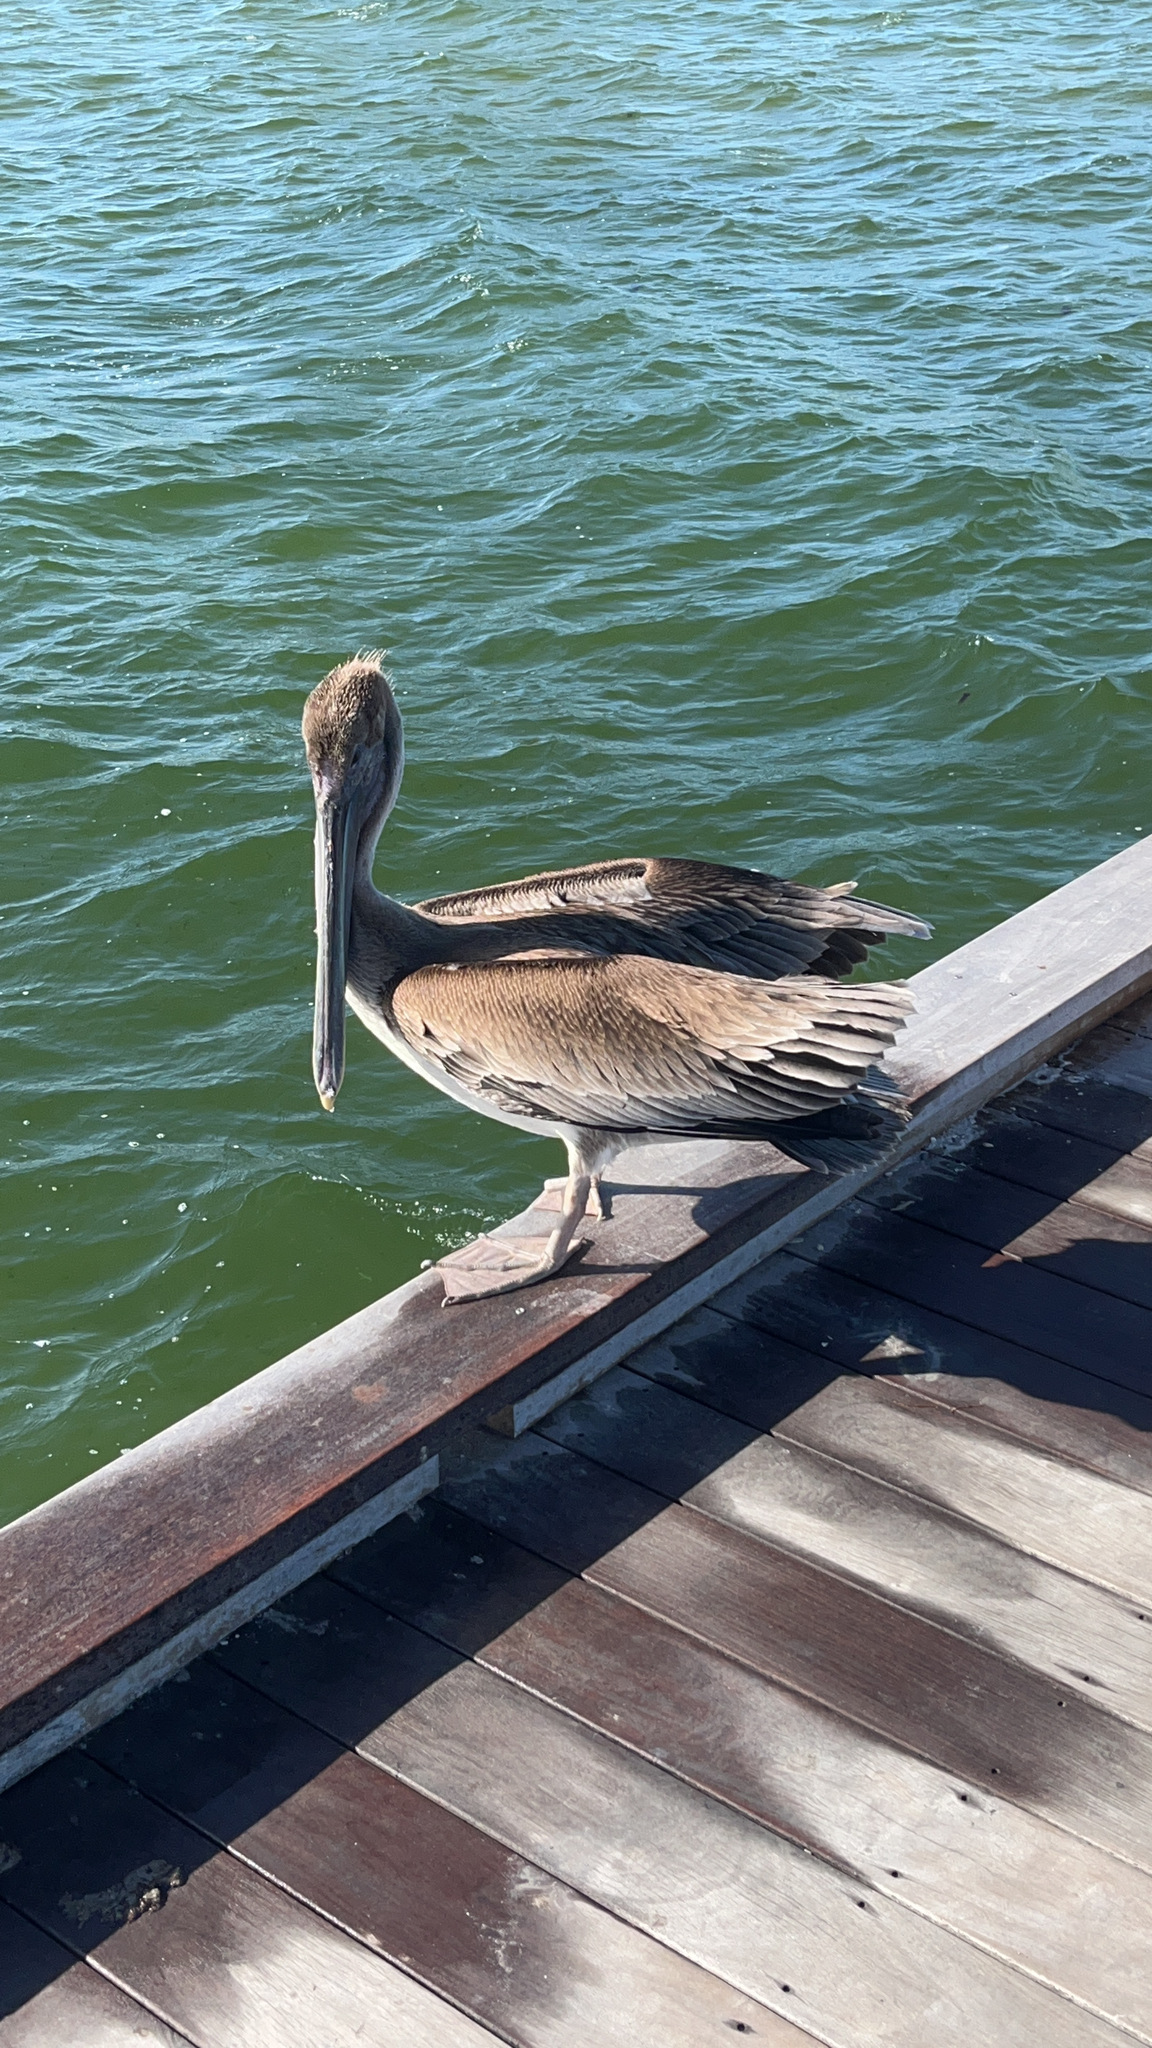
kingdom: Animalia
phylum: Chordata
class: Aves
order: Pelecaniformes
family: Pelecanidae
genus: Pelecanus
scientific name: Pelecanus occidentalis
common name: Brown pelican
